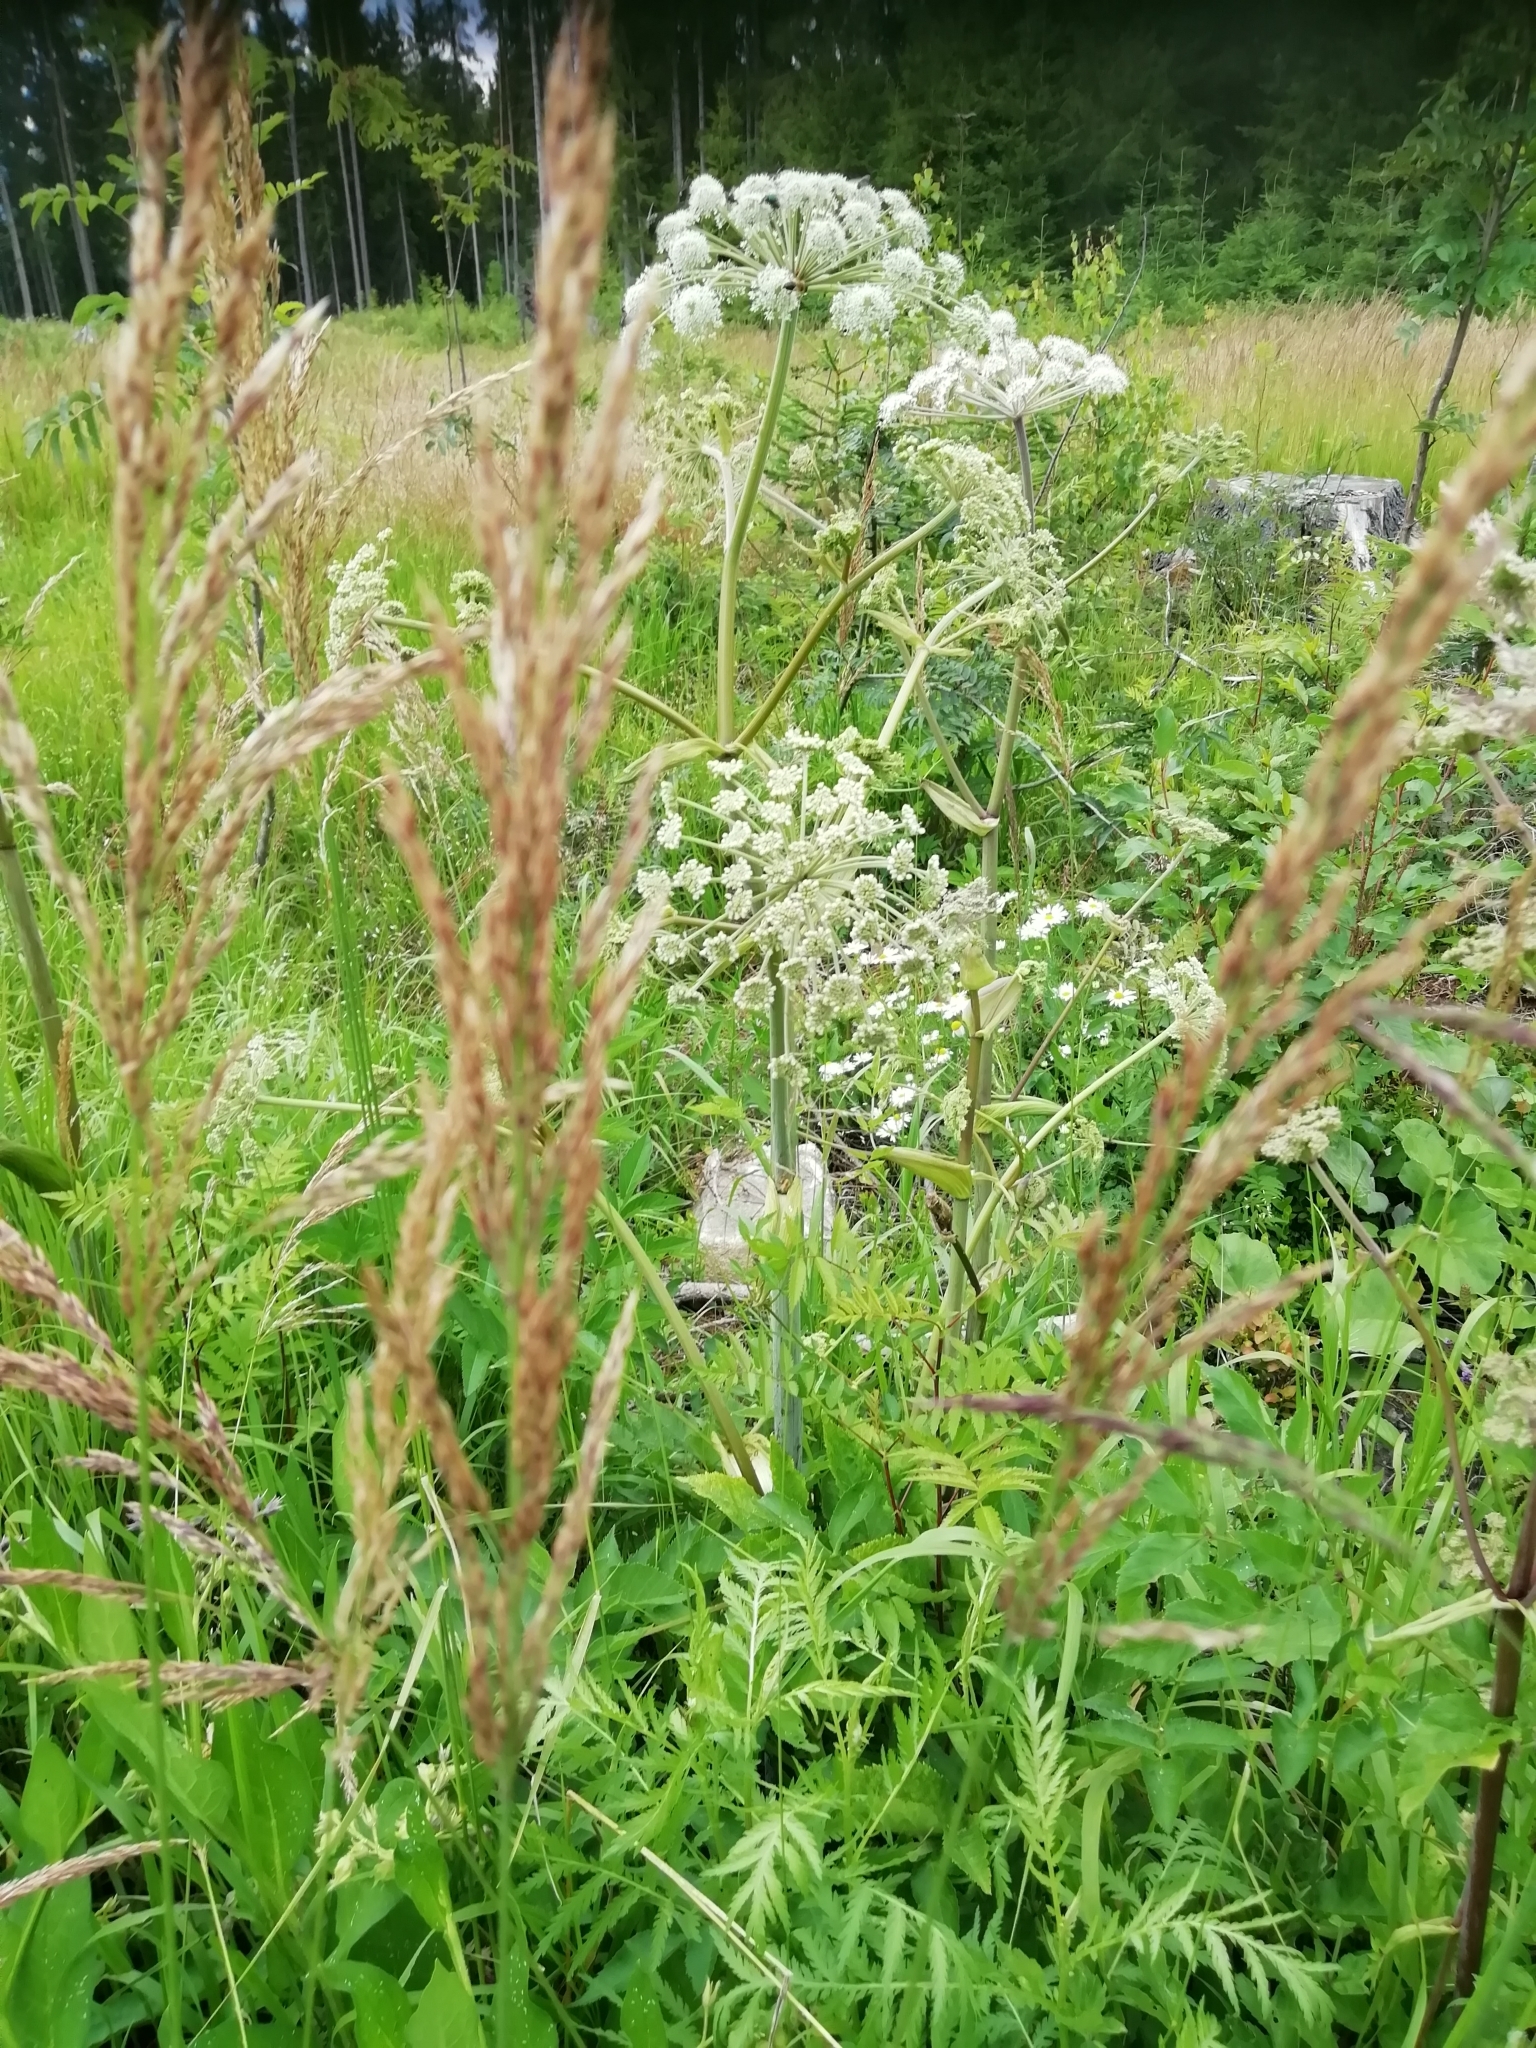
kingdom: Plantae
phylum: Tracheophyta
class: Magnoliopsida
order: Apiales
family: Apiaceae
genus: Angelica
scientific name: Angelica sylvestris
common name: Wild angelica
